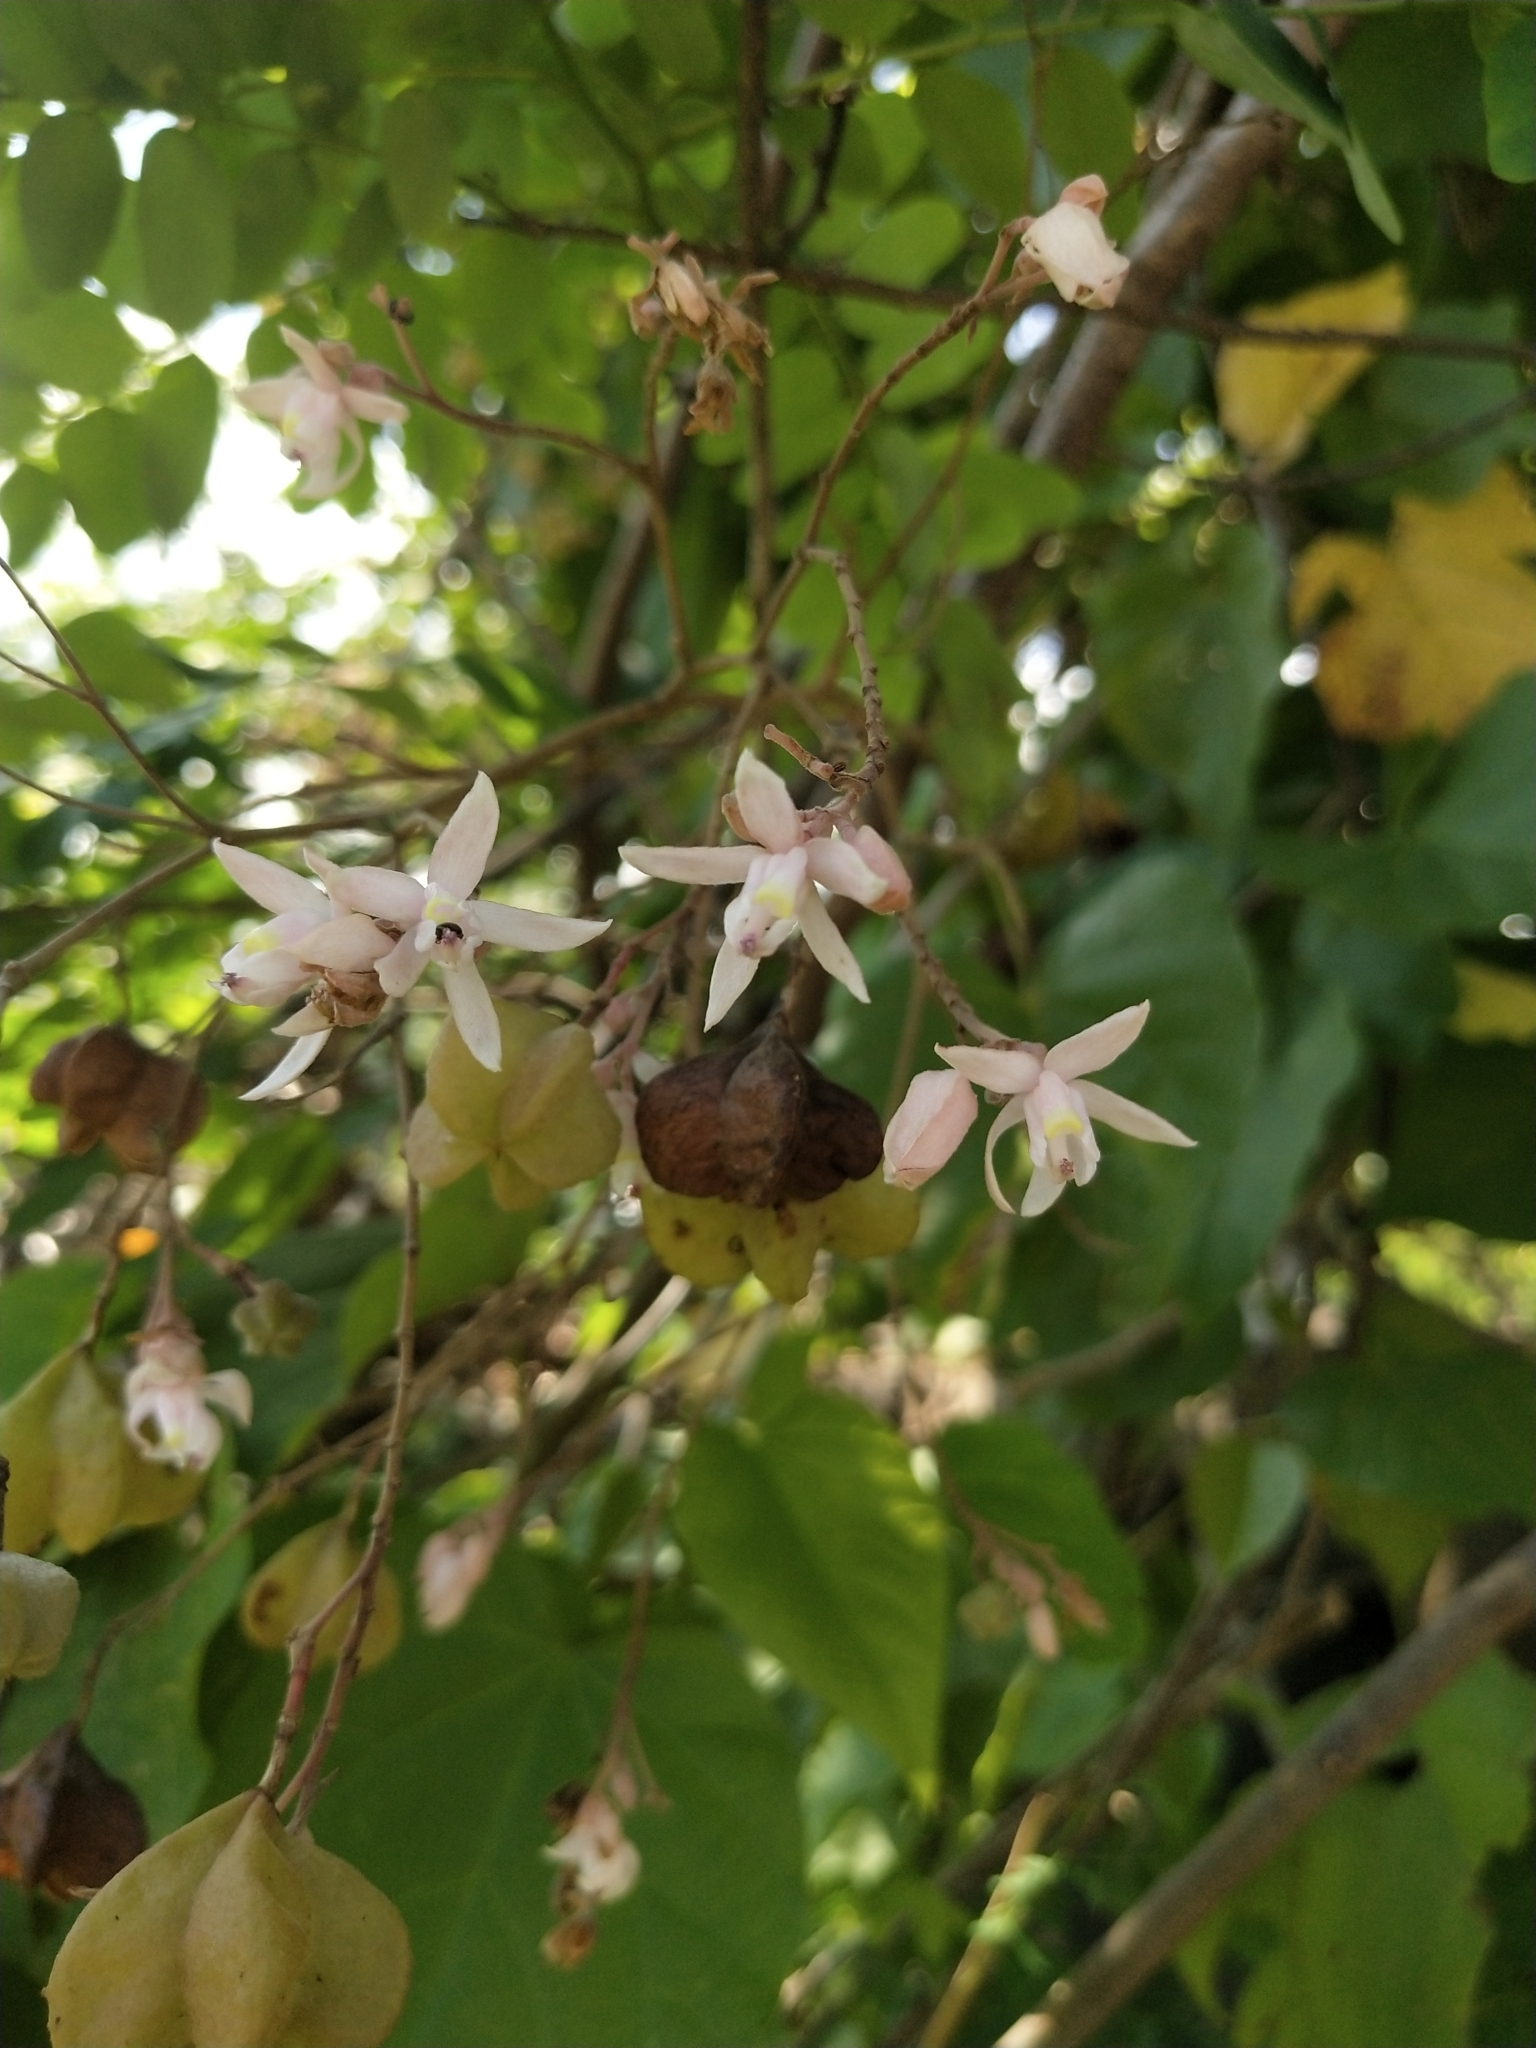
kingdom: Plantae
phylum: Tracheophyta
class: Magnoliopsida
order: Malvales
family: Malvaceae
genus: Kleinhovia
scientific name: Kleinhovia hospita
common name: Guest-tree
